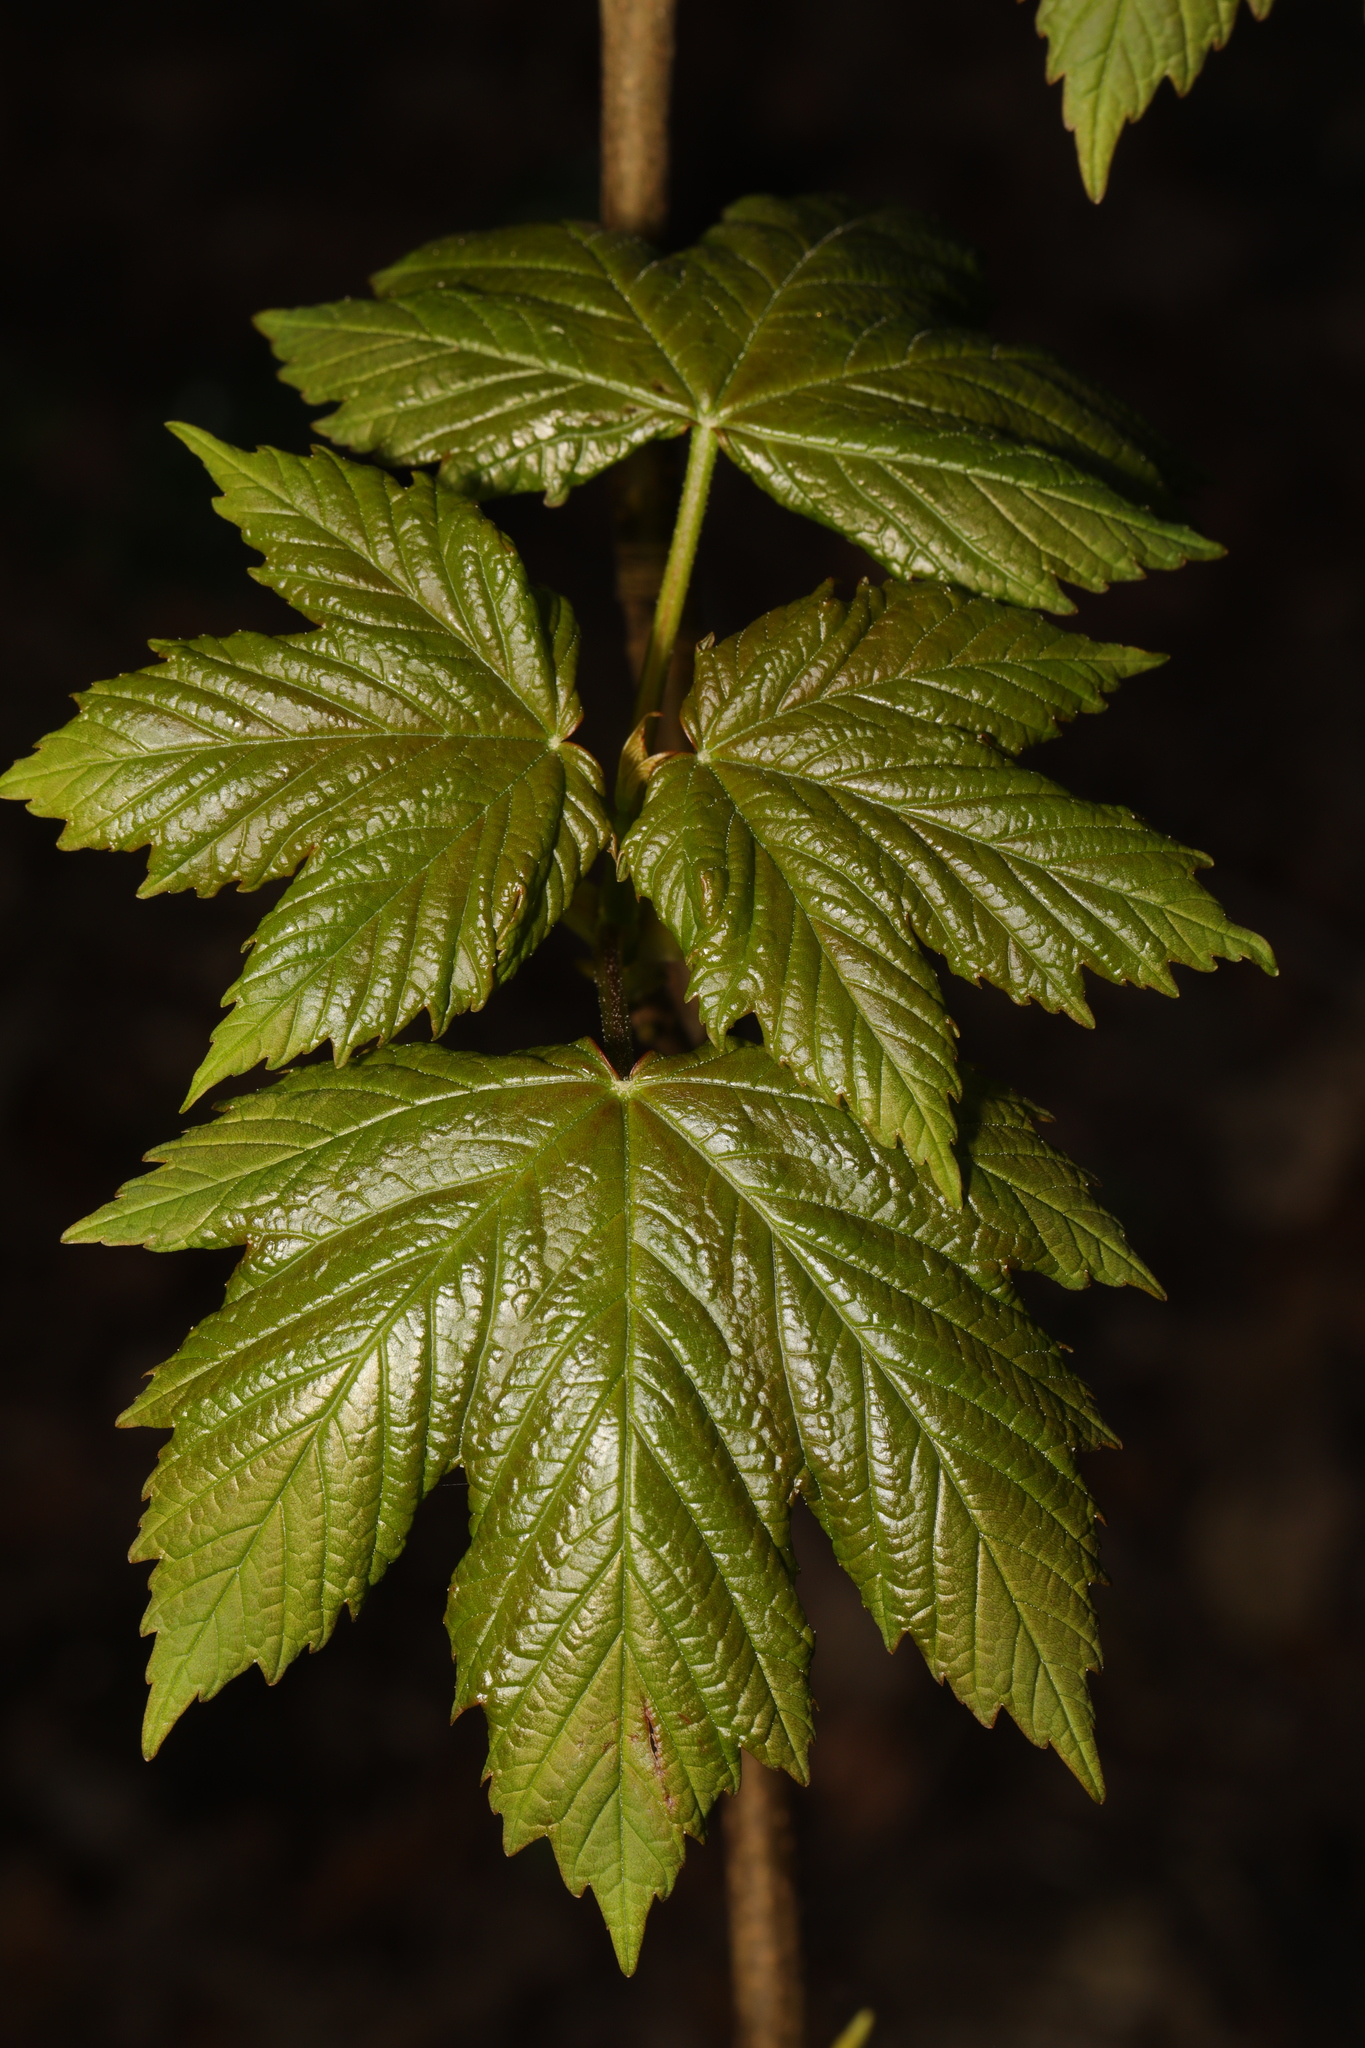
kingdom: Plantae
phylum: Tracheophyta
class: Magnoliopsida
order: Sapindales
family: Sapindaceae
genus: Acer
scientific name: Acer pseudoplatanus
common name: Sycamore
